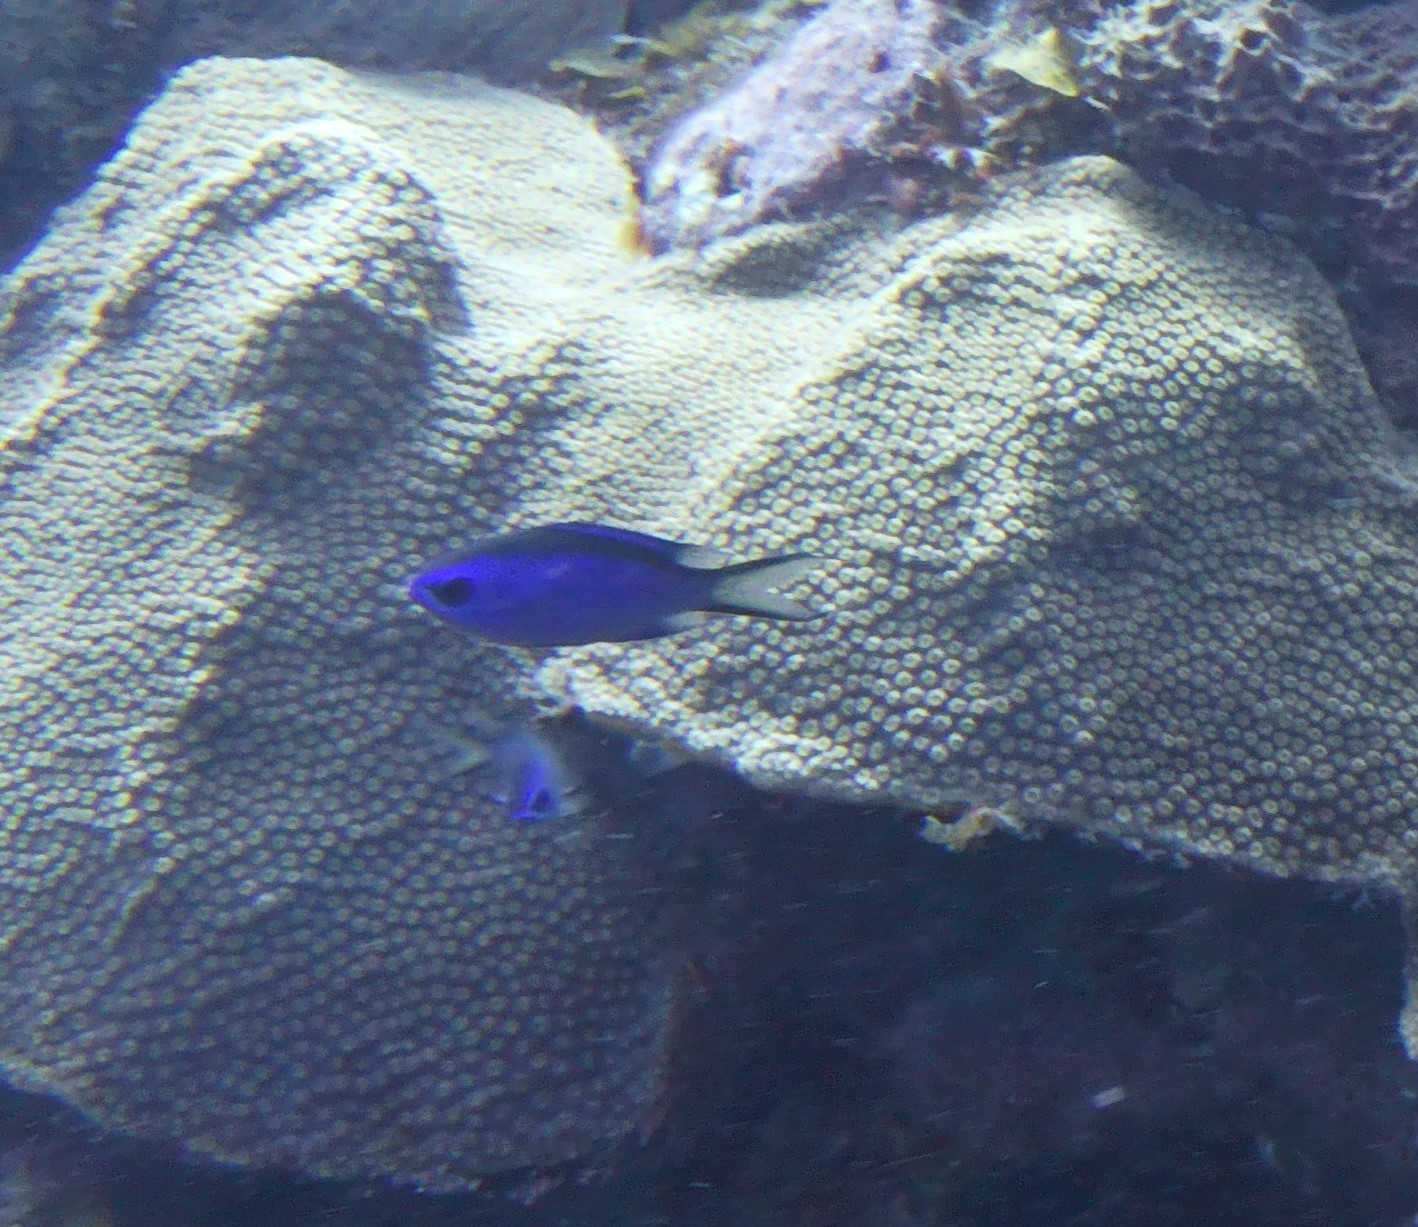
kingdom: Animalia
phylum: Chordata
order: Perciformes
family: Pomacentridae
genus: Chromis
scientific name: Chromis cyanea
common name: Blue chromis
